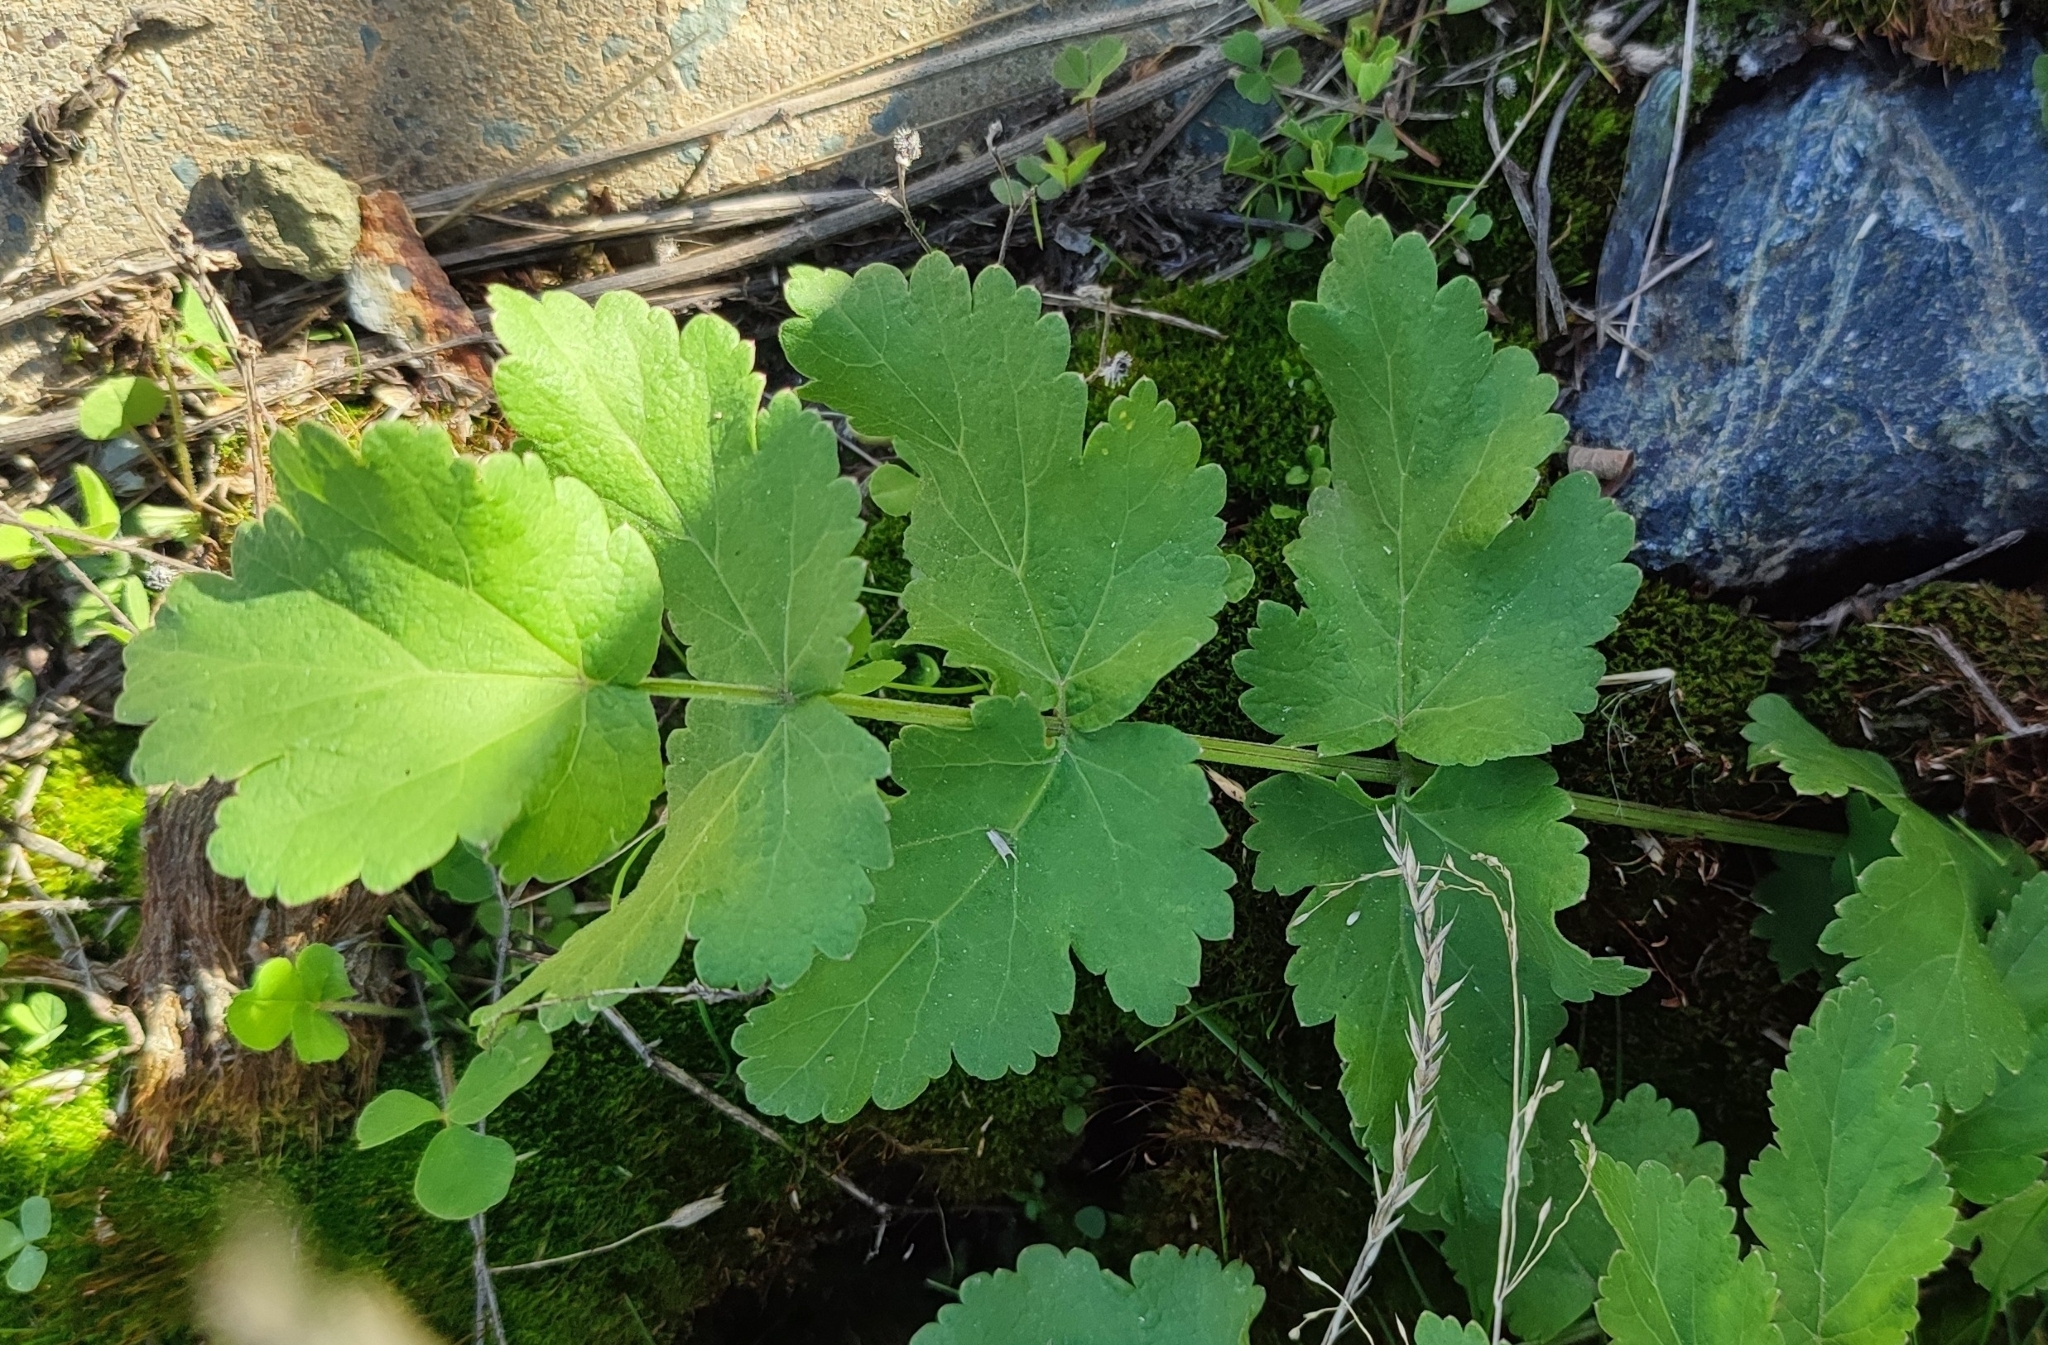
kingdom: Plantae
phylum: Tracheophyta
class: Magnoliopsida
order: Apiales
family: Apiaceae
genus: Pastinaca
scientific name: Pastinaca sativa
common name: Wild parsnip
